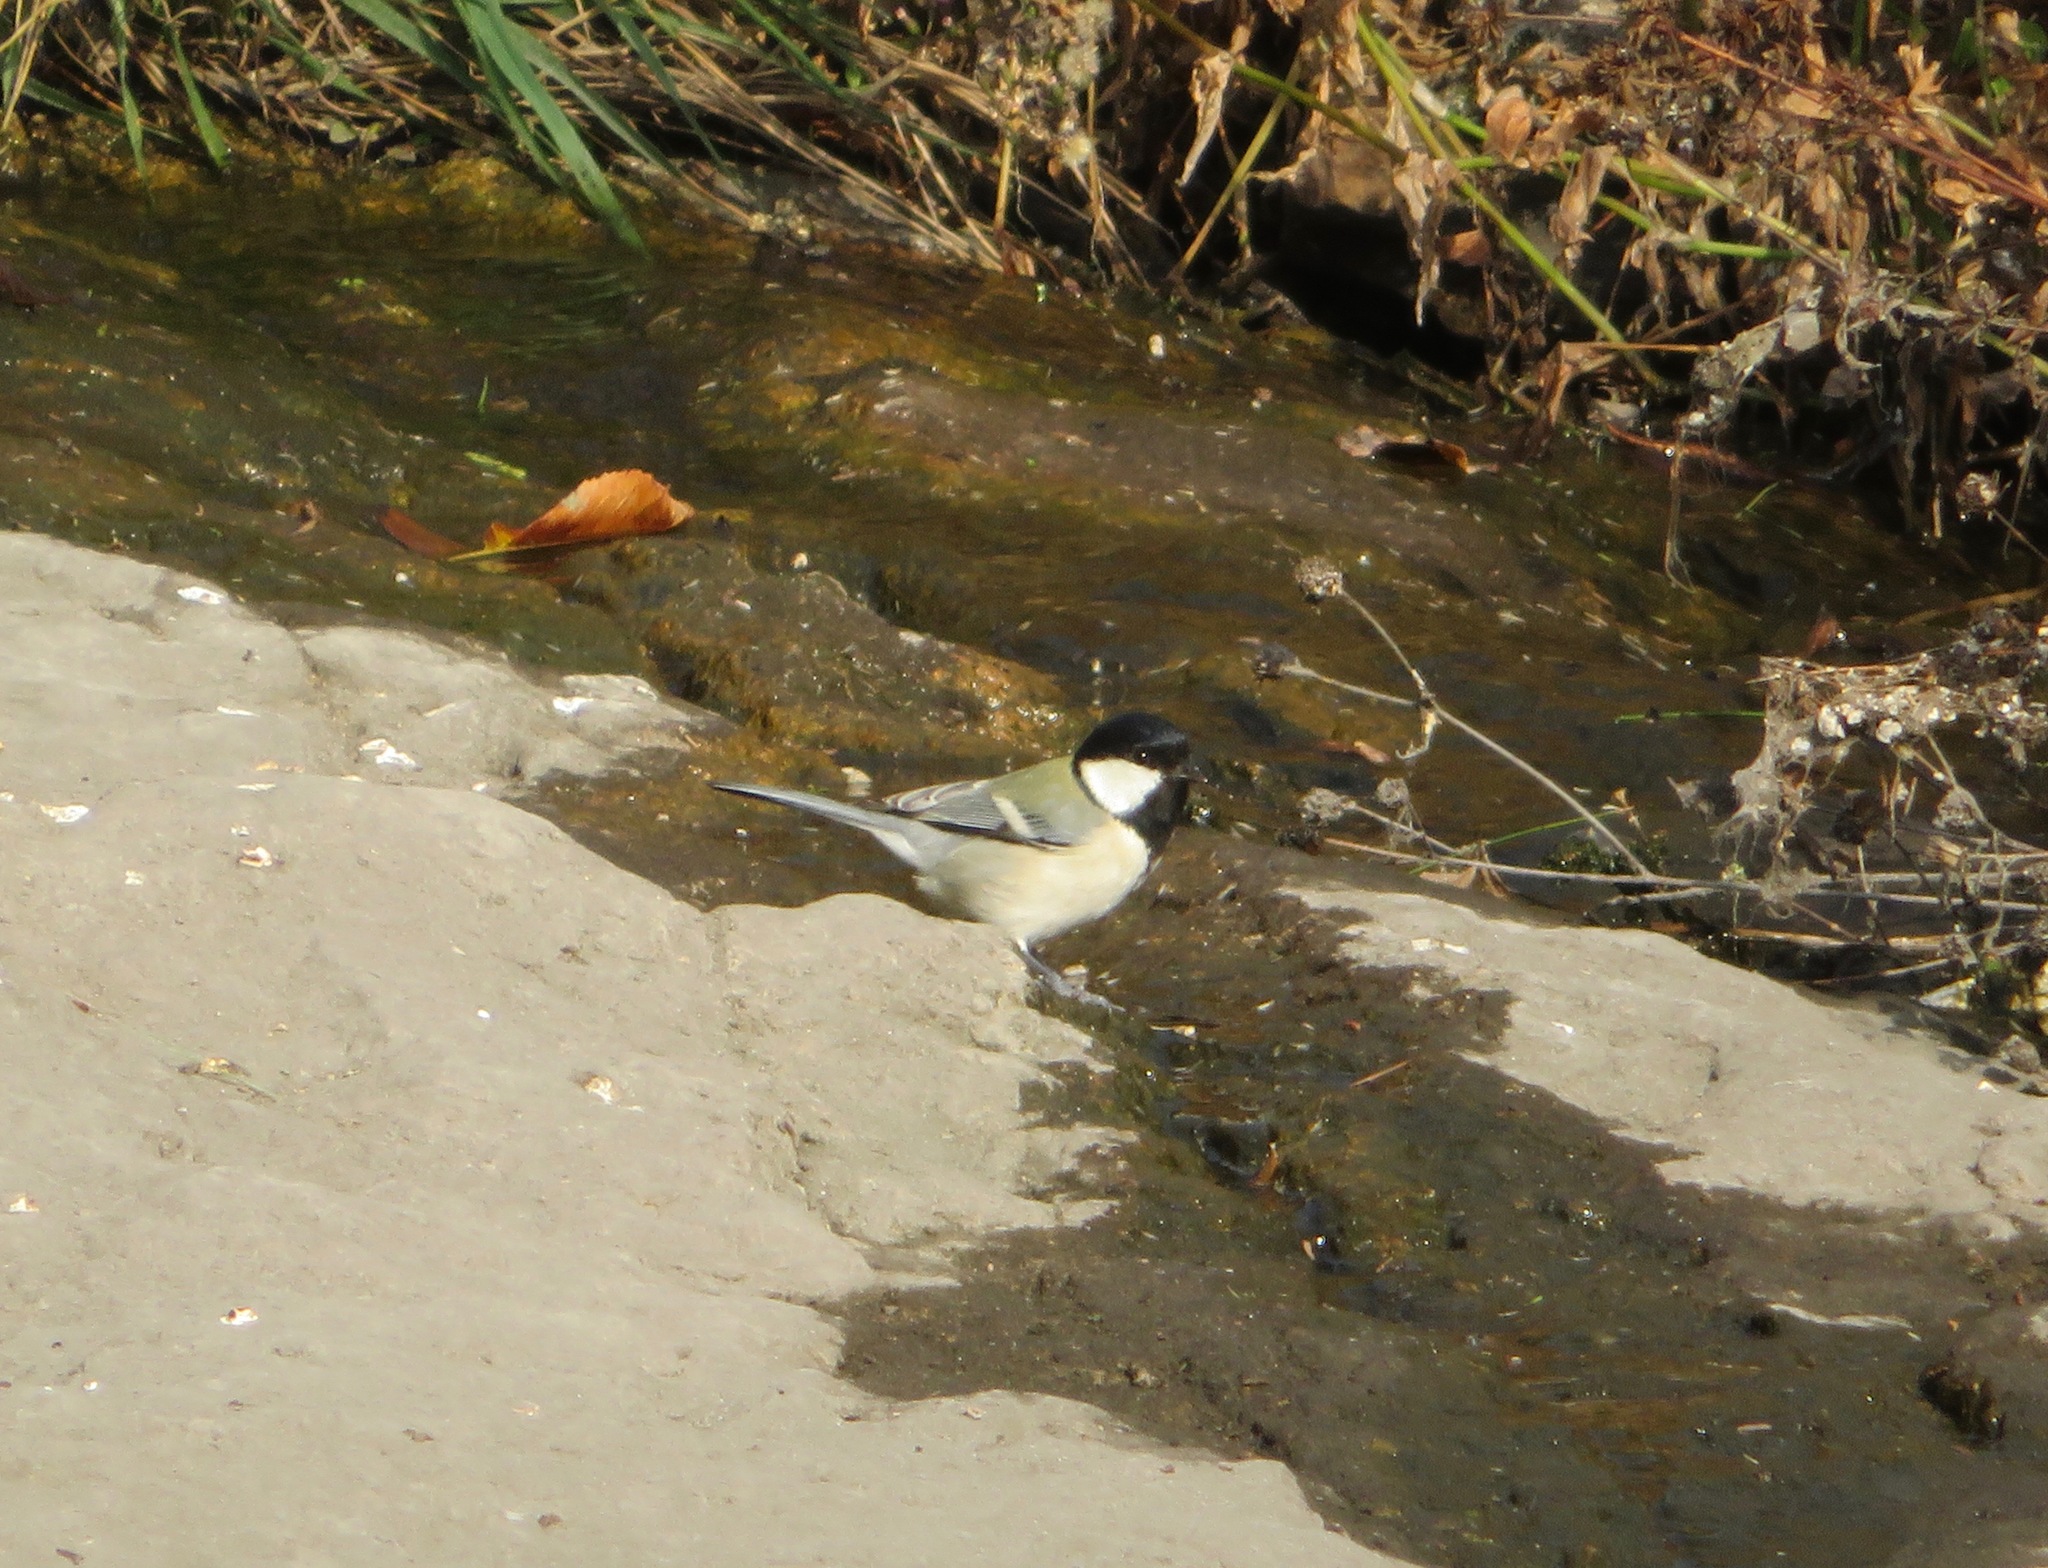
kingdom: Animalia
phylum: Chordata
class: Aves
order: Passeriformes
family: Paridae
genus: Parus
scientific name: Parus minor
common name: Japanese tit
